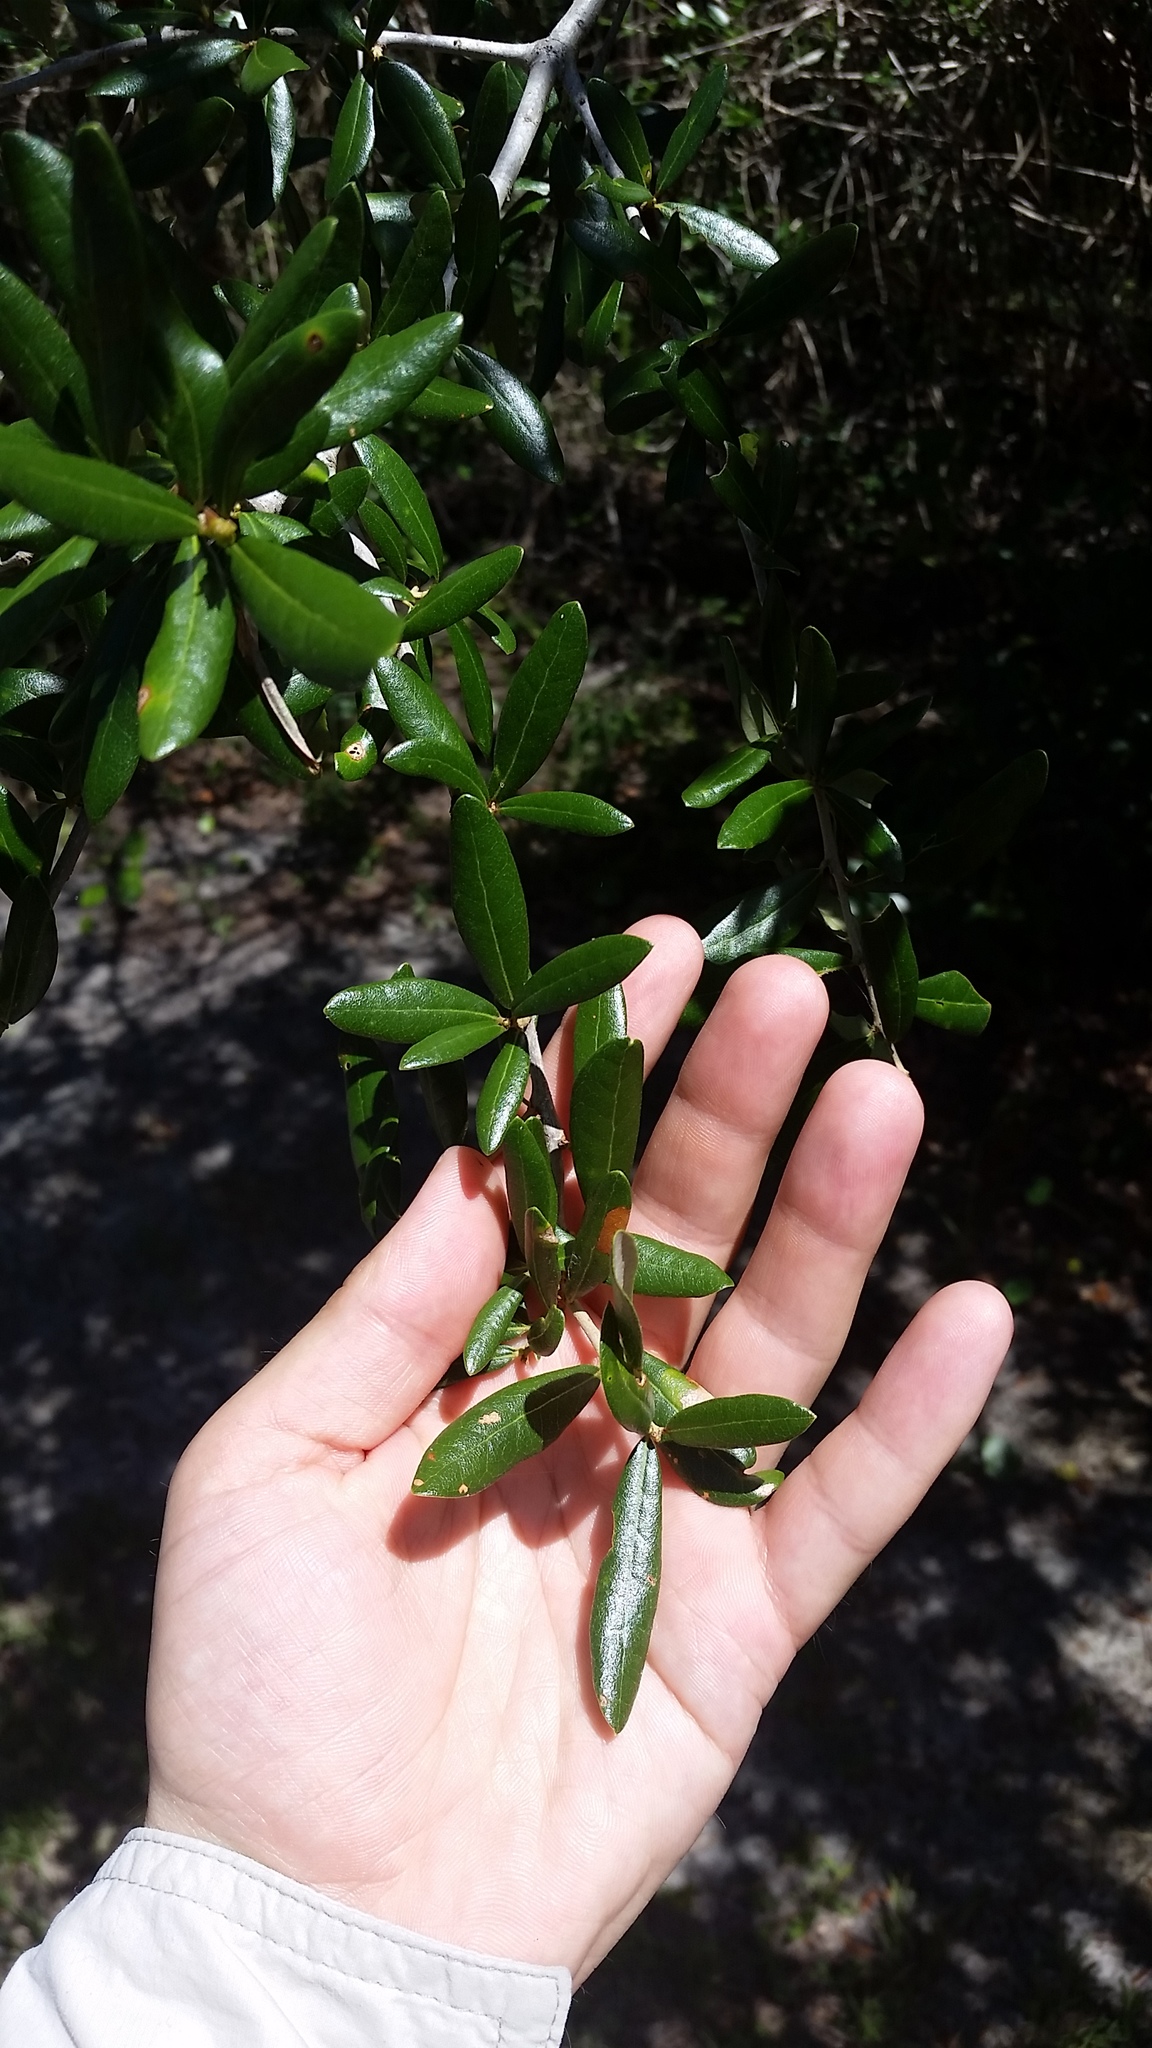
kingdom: Plantae
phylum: Tracheophyta
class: Magnoliopsida
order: Fagales
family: Fagaceae
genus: Quercus
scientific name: Quercus virginiana
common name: Southern live oak
